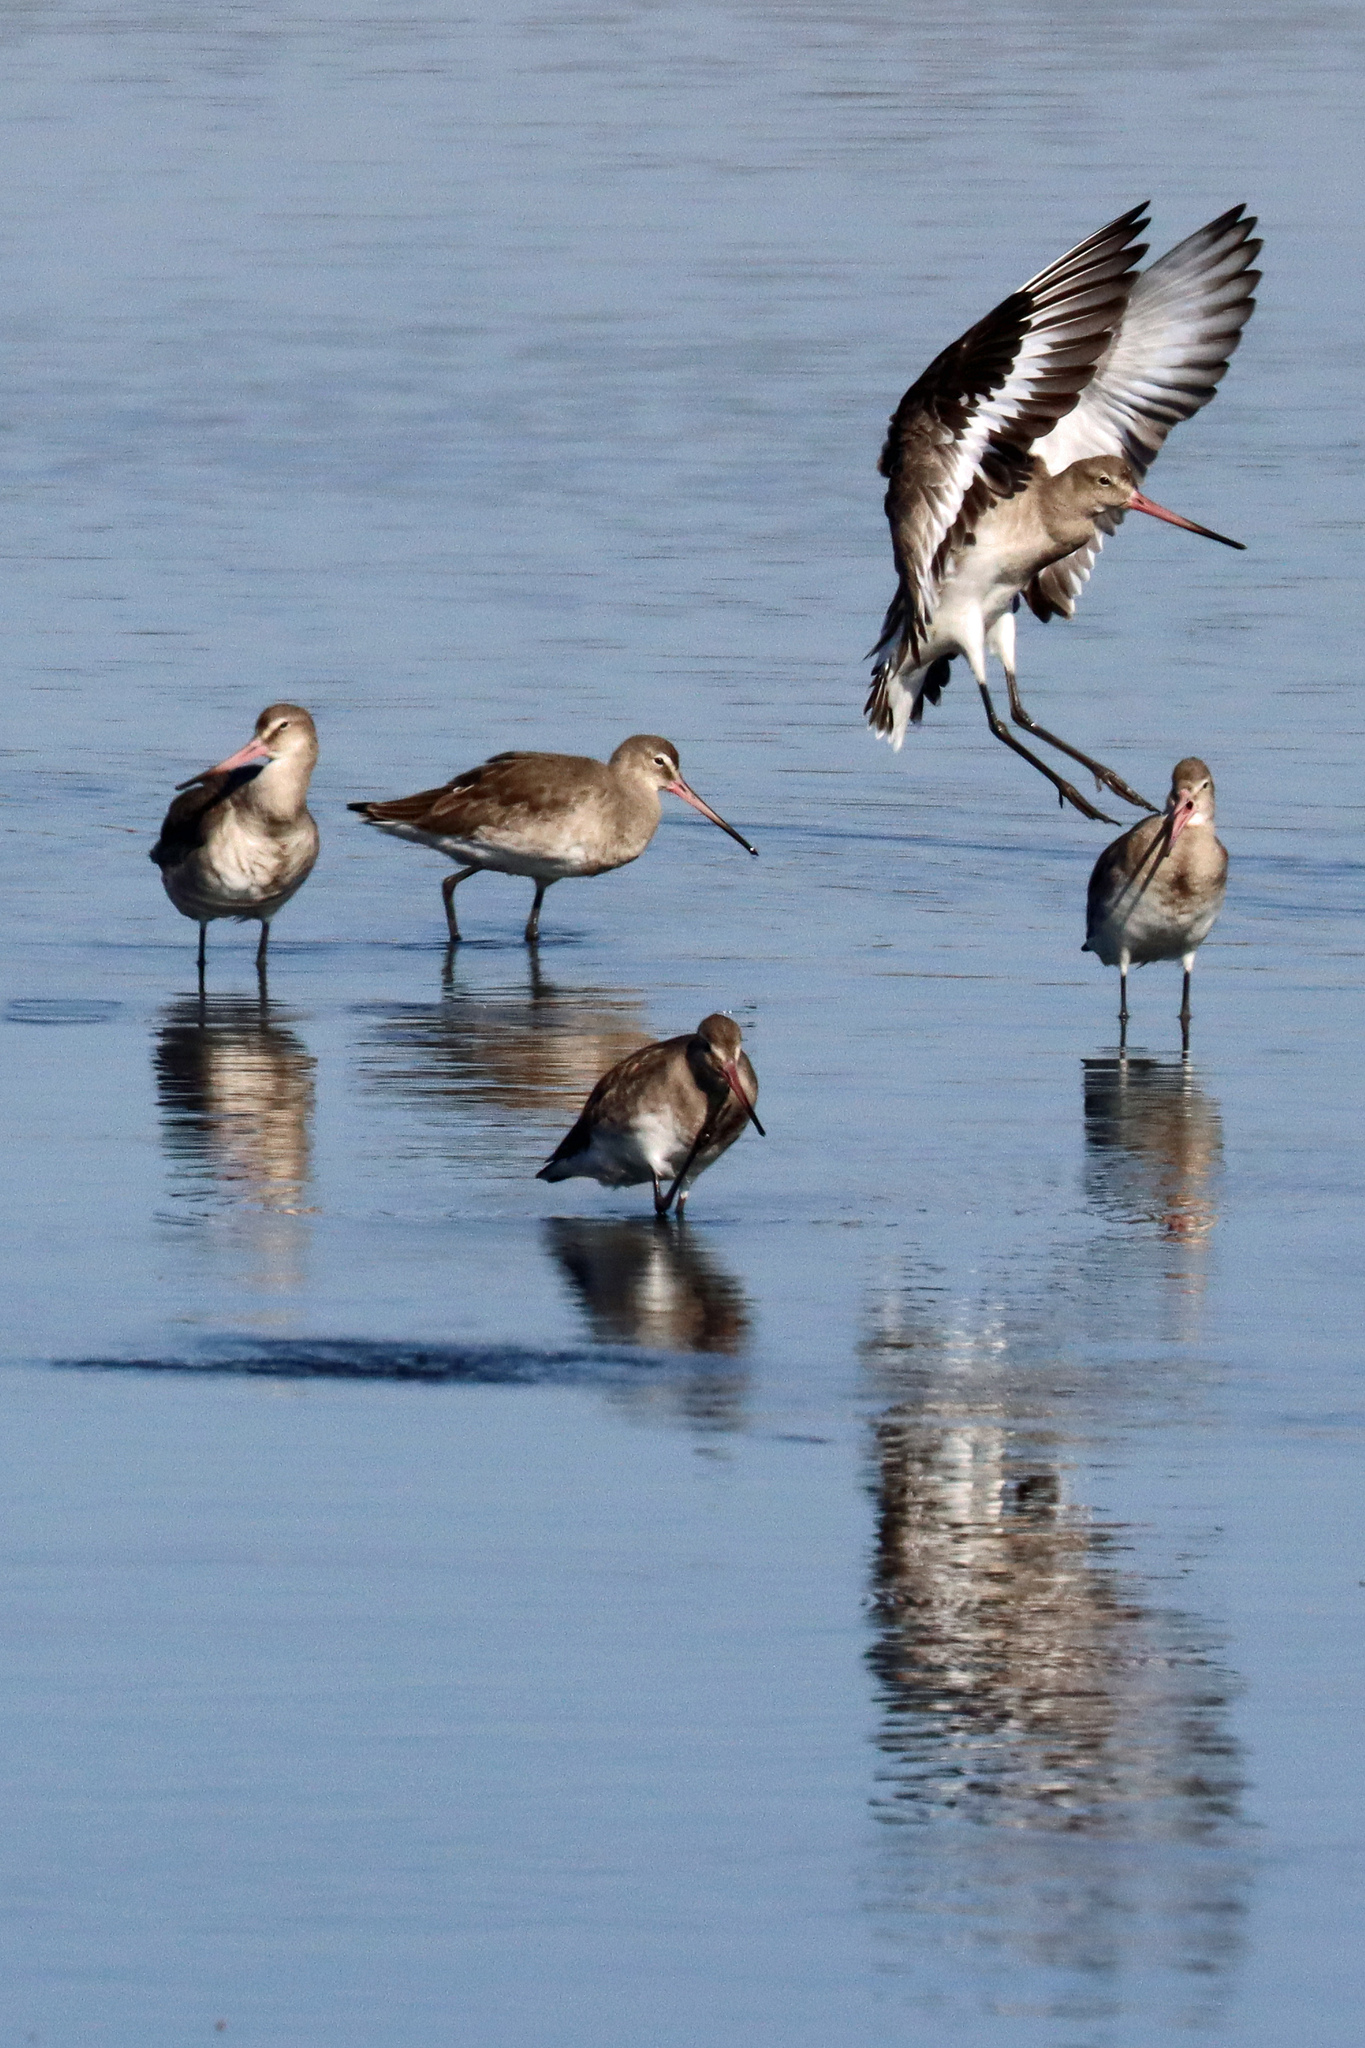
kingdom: Animalia
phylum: Chordata
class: Aves
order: Charadriiformes
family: Scolopacidae
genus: Limosa
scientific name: Limosa limosa
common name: Black-tailed godwit
